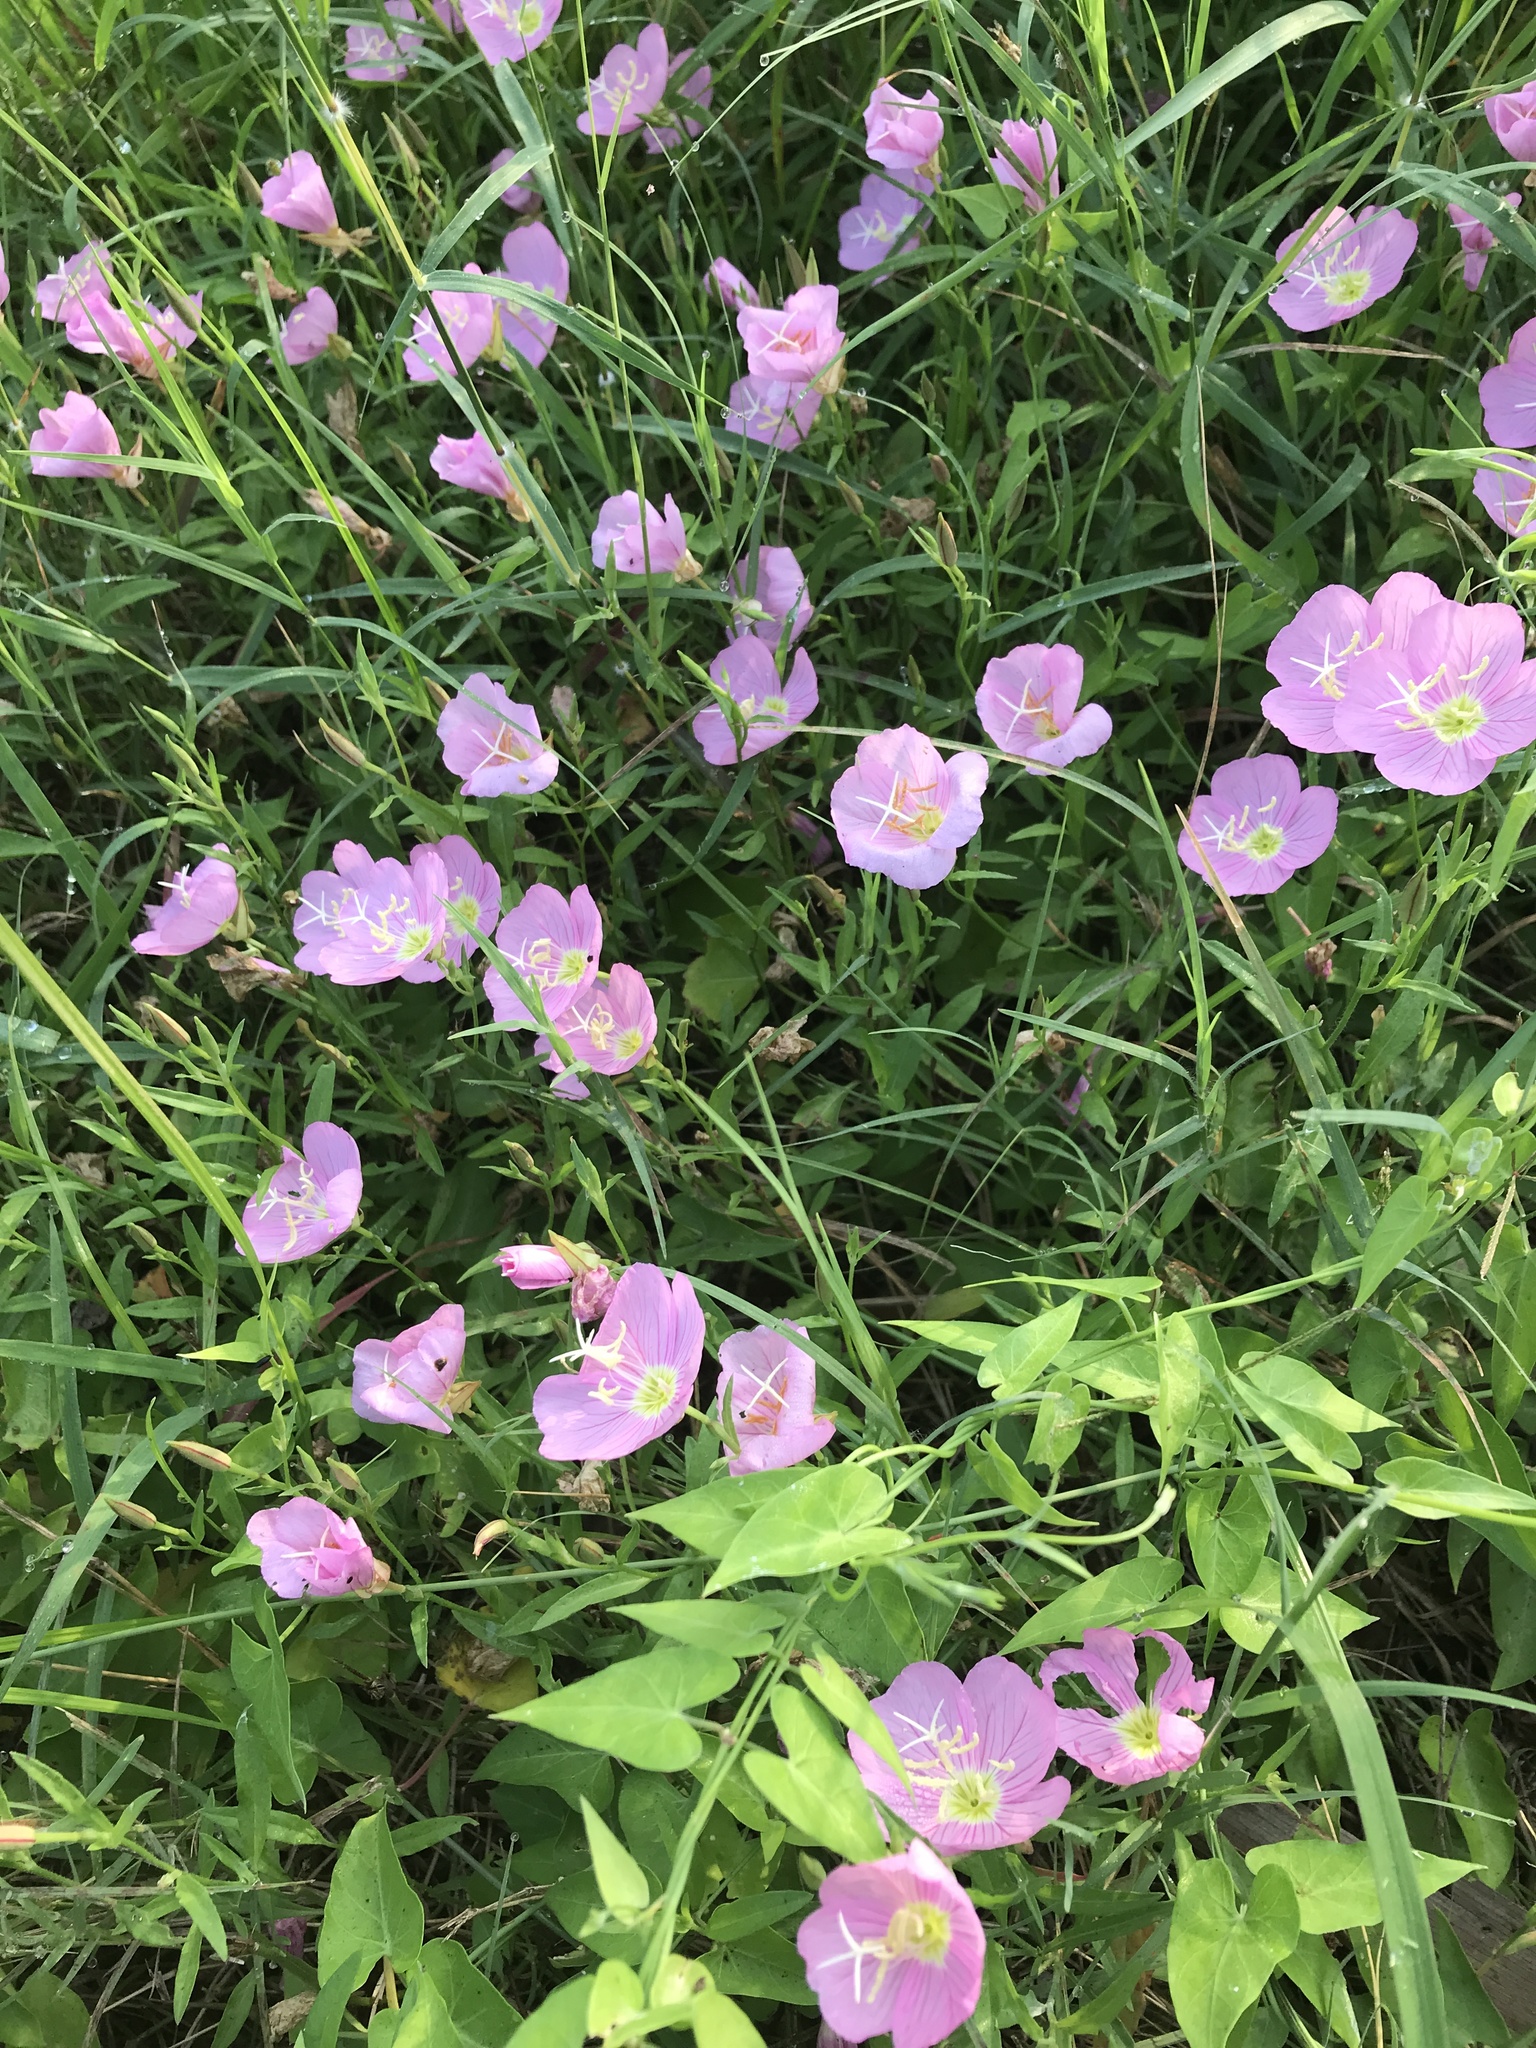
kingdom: Plantae
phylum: Tracheophyta
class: Magnoliopsida
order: Myrtales
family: Onagraceae
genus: Oenothera
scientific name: Oenothera speciosa
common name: White evening-primrose
